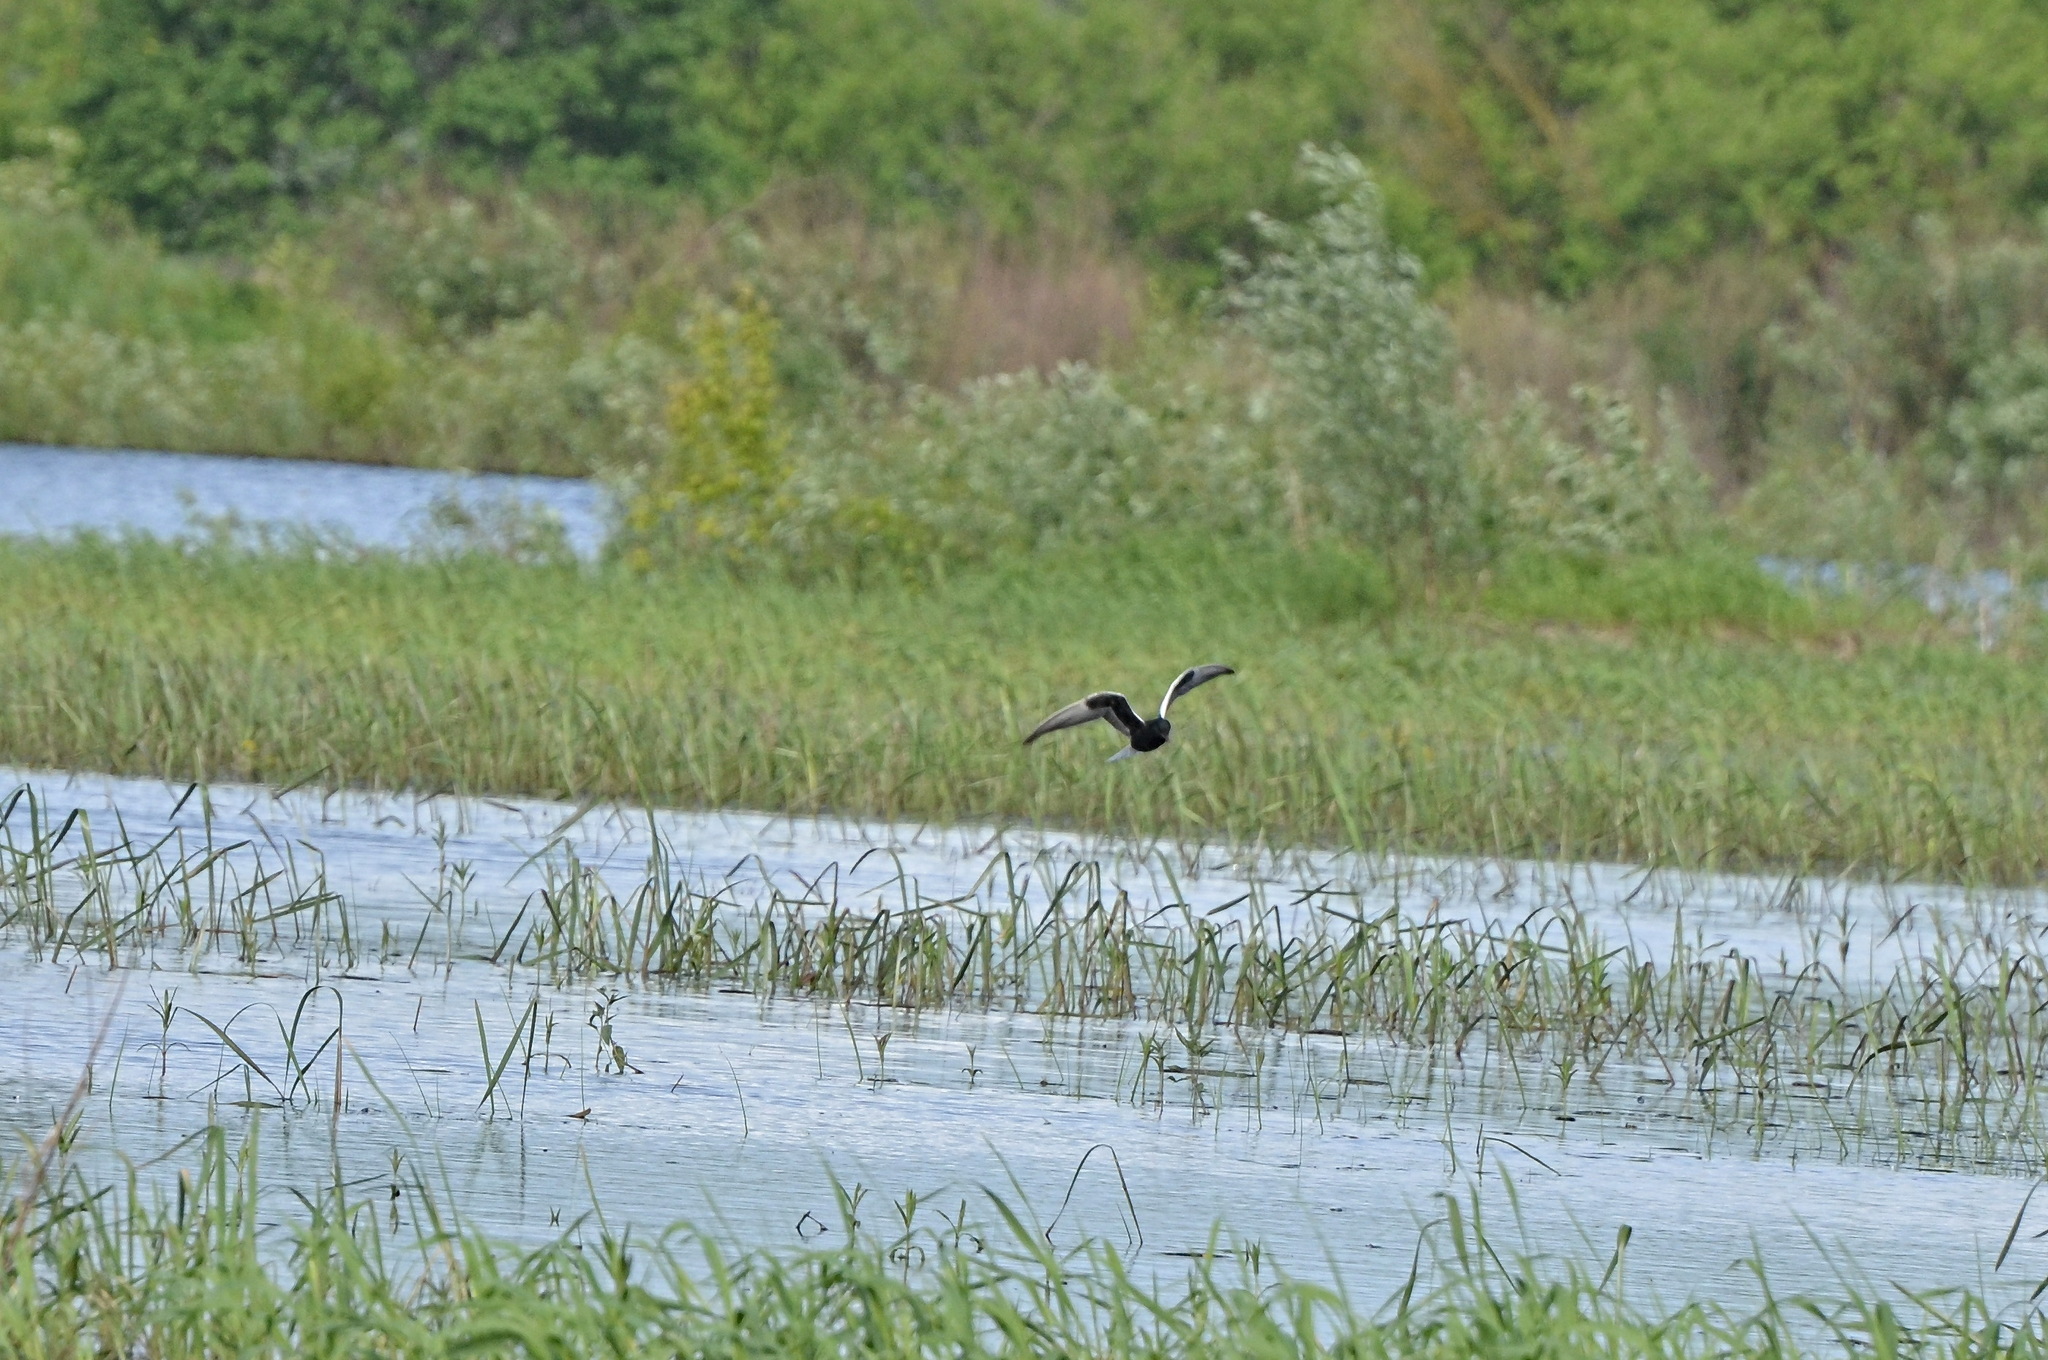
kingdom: Animalia
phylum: Chordata
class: Aves
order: Charadriiformes
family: Laridae
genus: Chlidonias
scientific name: Chlidonias leucopterus
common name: White-winged tern
